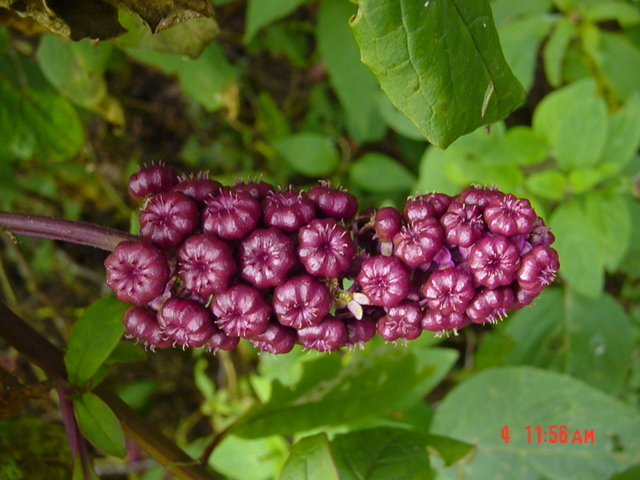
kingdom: Plantae
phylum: Tracheophyta
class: Magnoliopsida
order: Caryophyllales
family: Phytolaccaceae
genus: Phytolacca
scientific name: Phytolacca rugosa
